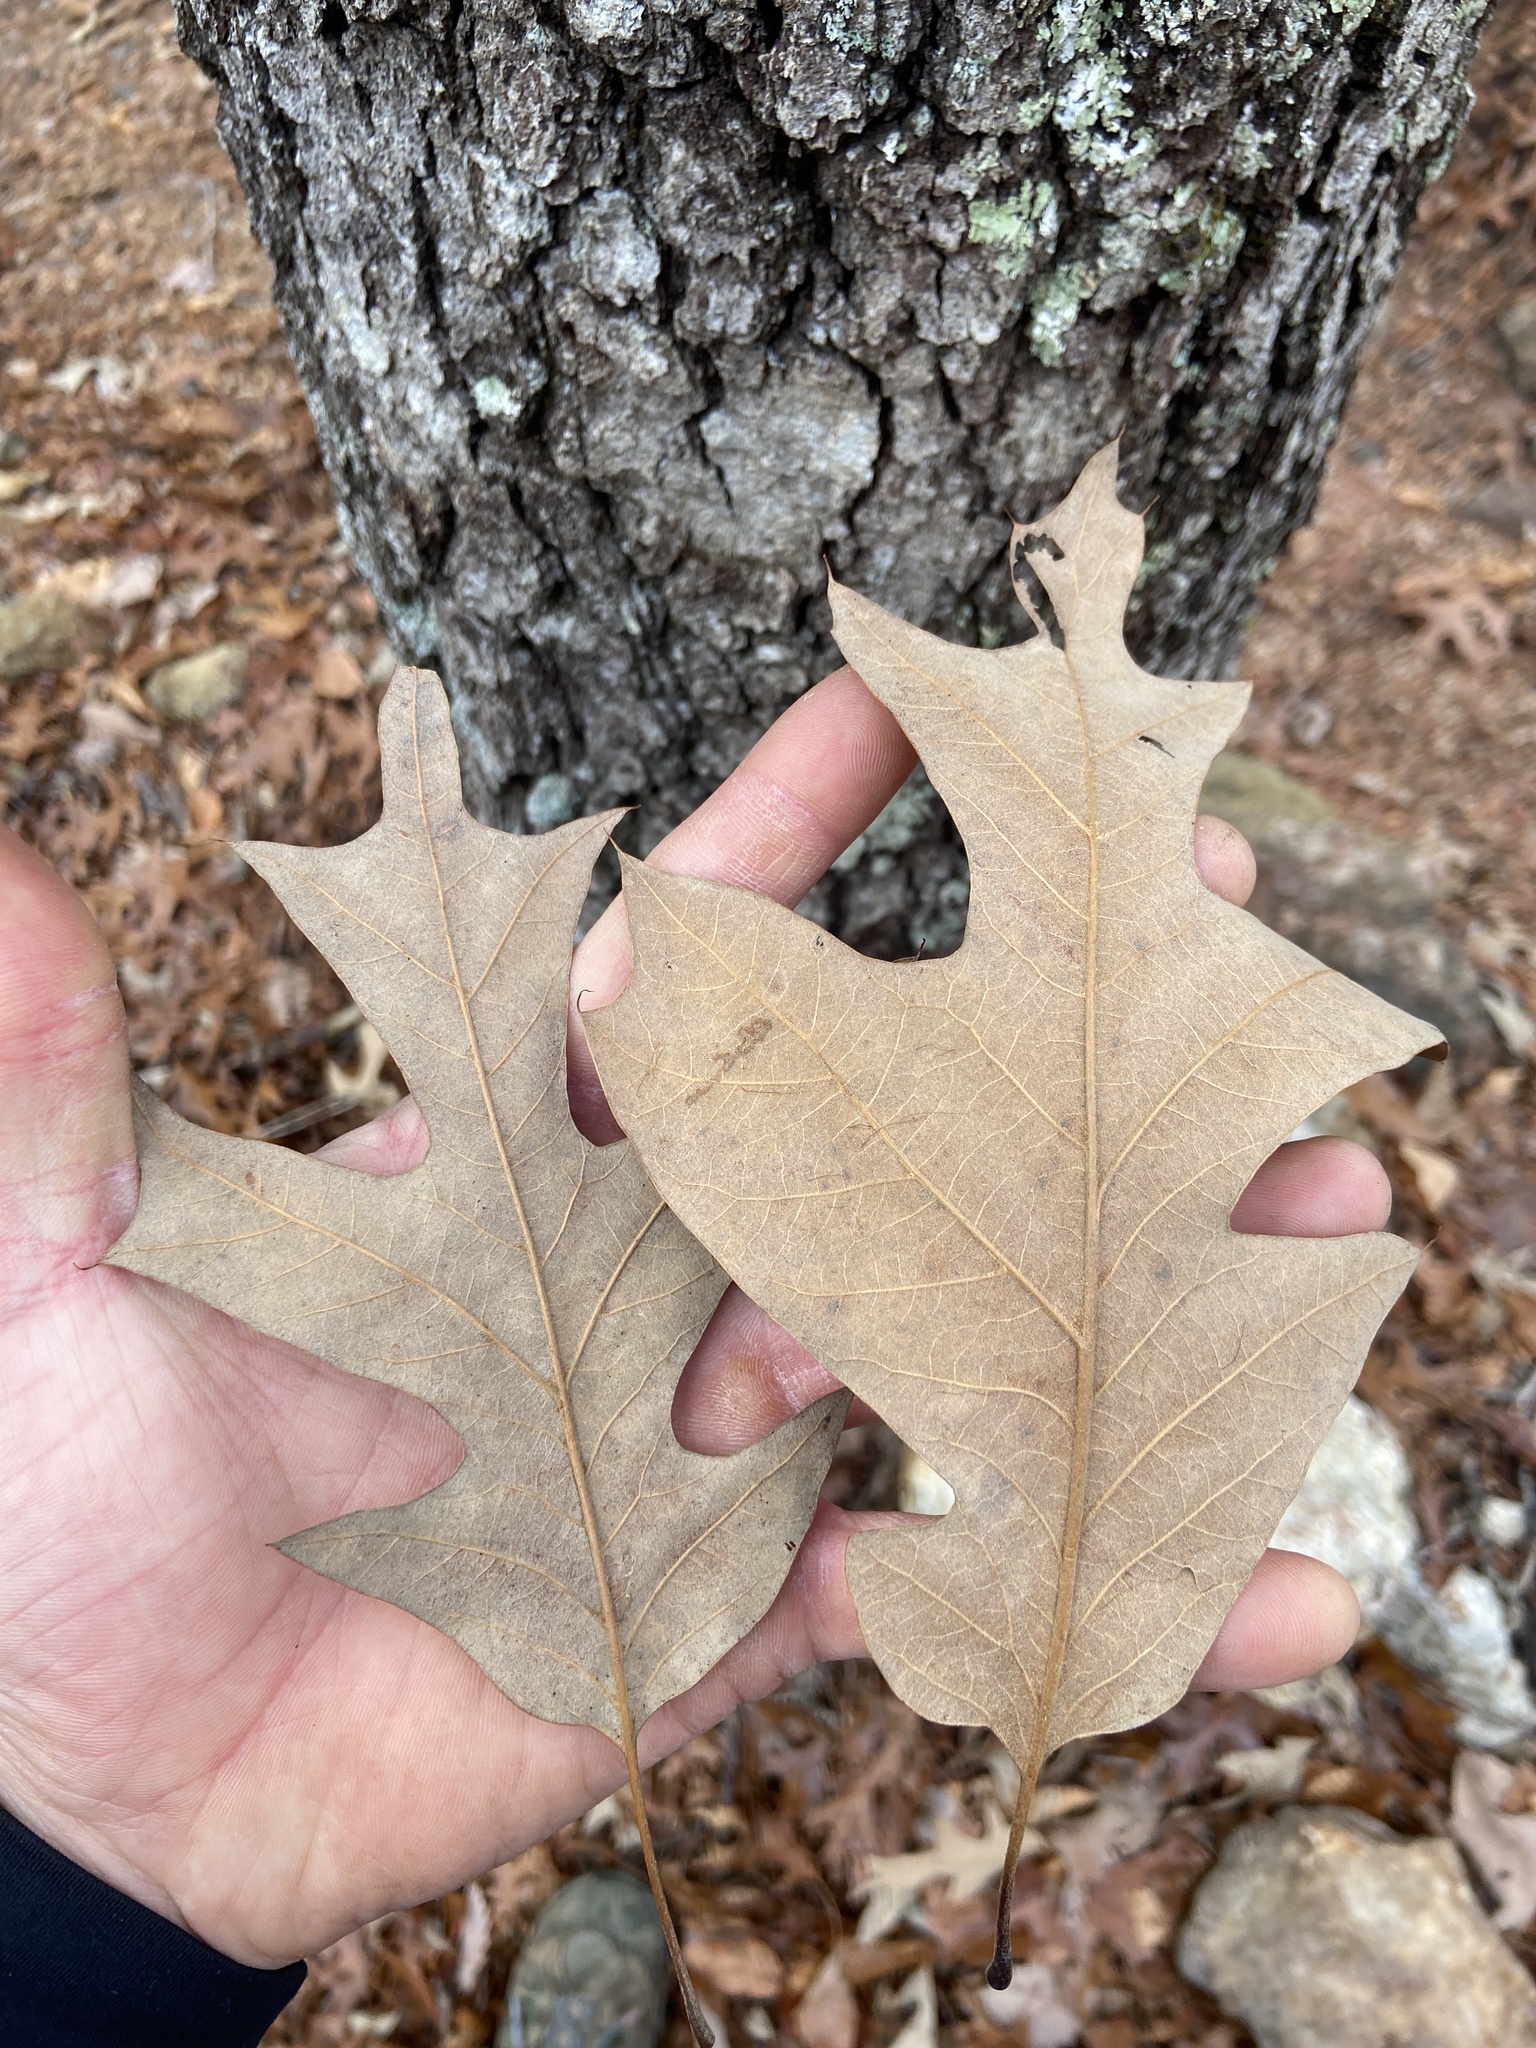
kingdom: Plantae
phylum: Tracheophyta
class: Magnoliopsida
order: Fagales
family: Fagaceae
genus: Quercus
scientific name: Quercus velutina
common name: Black oak
